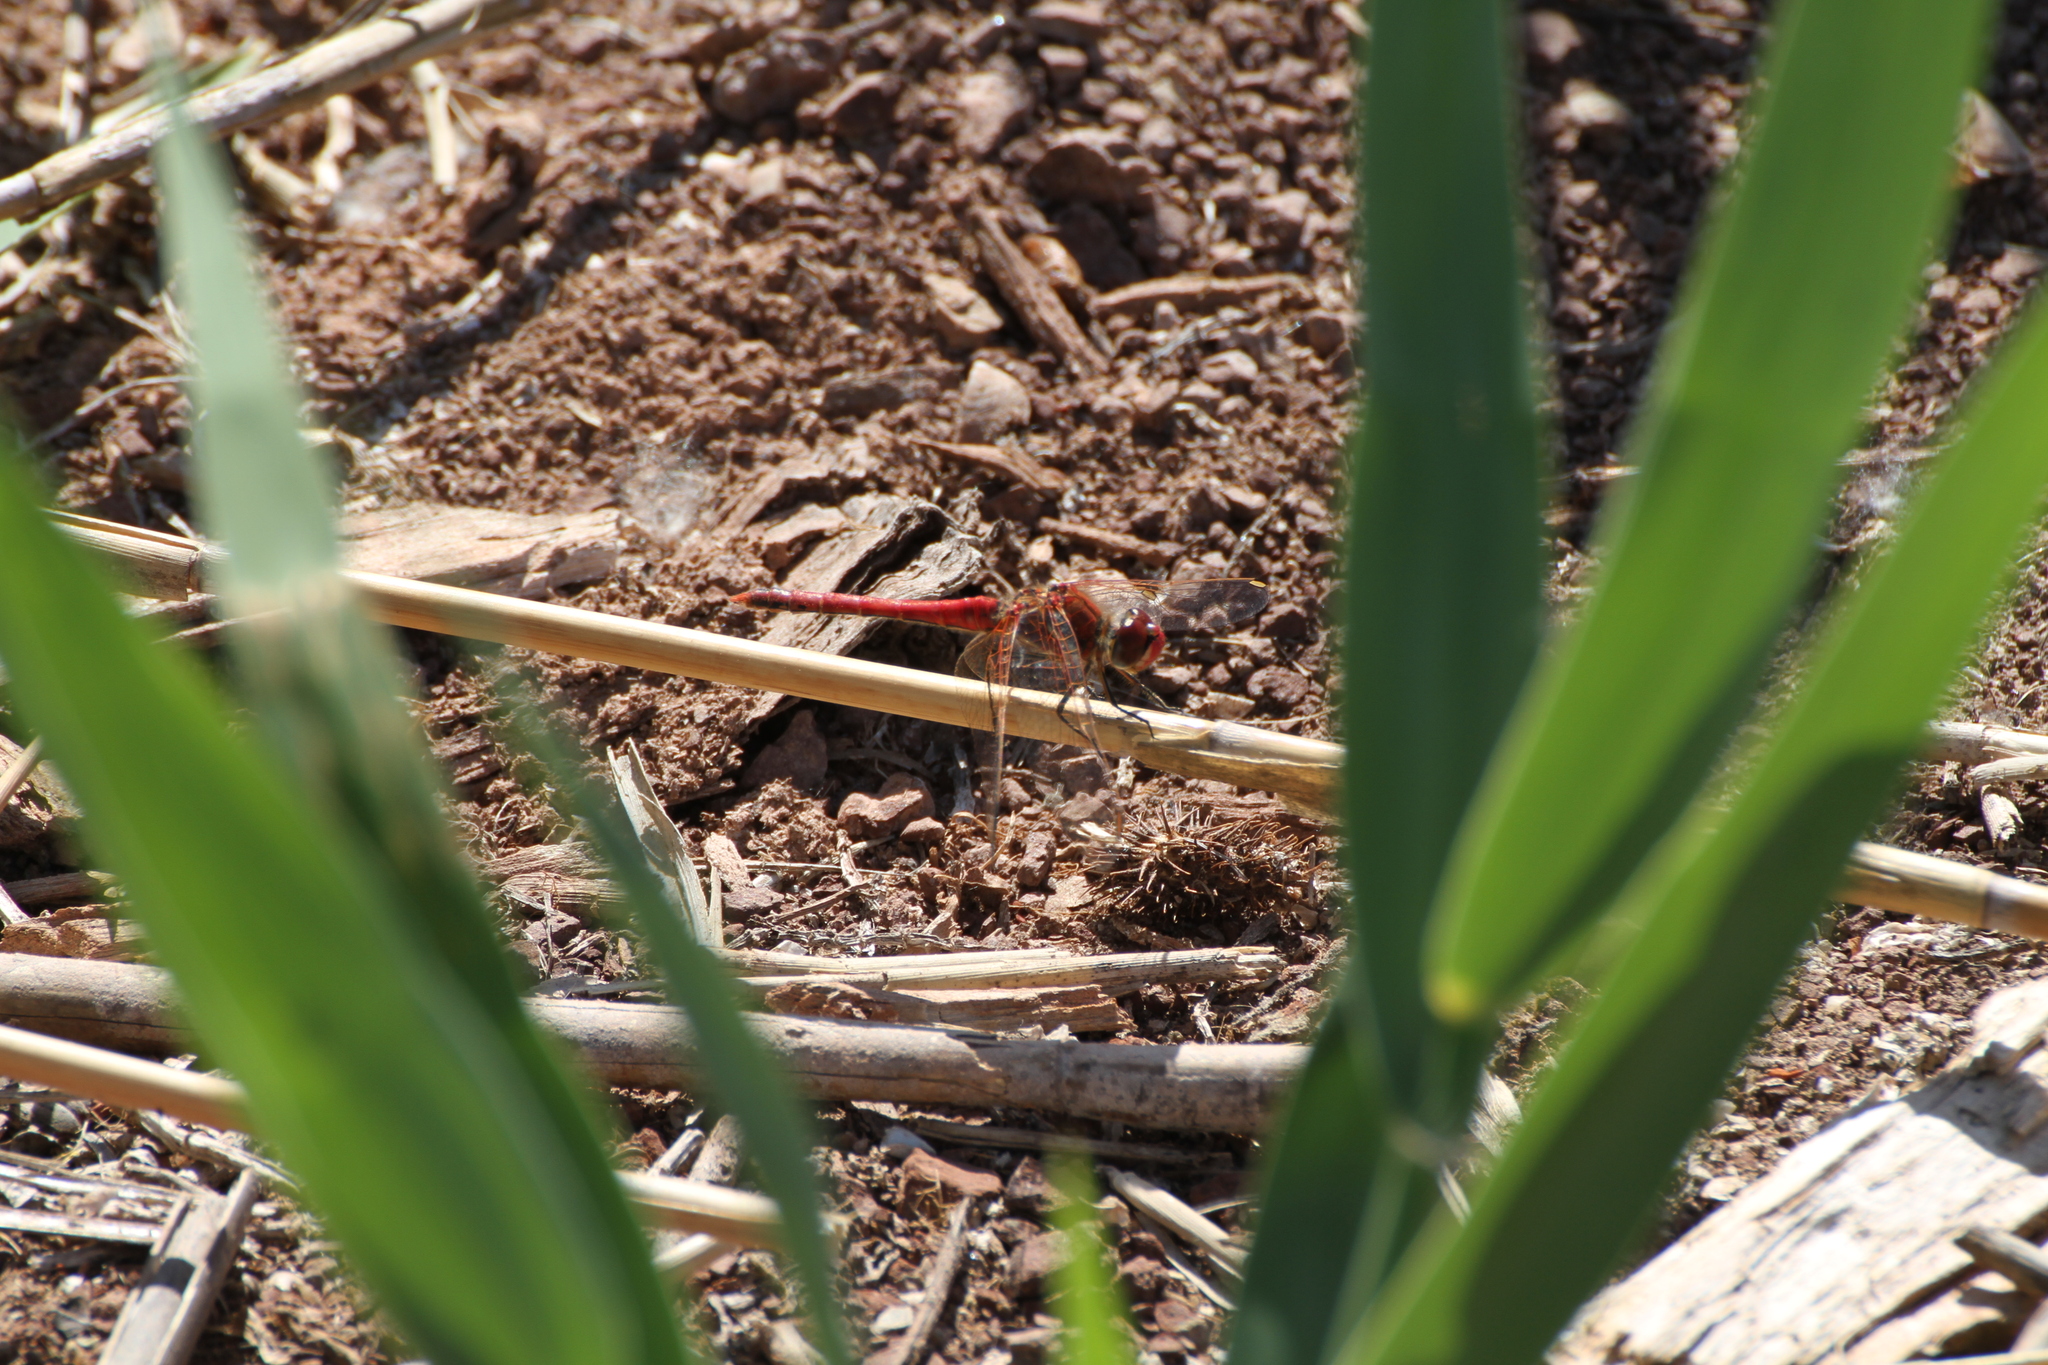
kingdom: Animalia
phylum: Arthropoda
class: Insecta
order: Odonata
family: Libellulidae
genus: Sympetrum
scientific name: Sympetrum fonscolombii
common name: Red-veined darter
